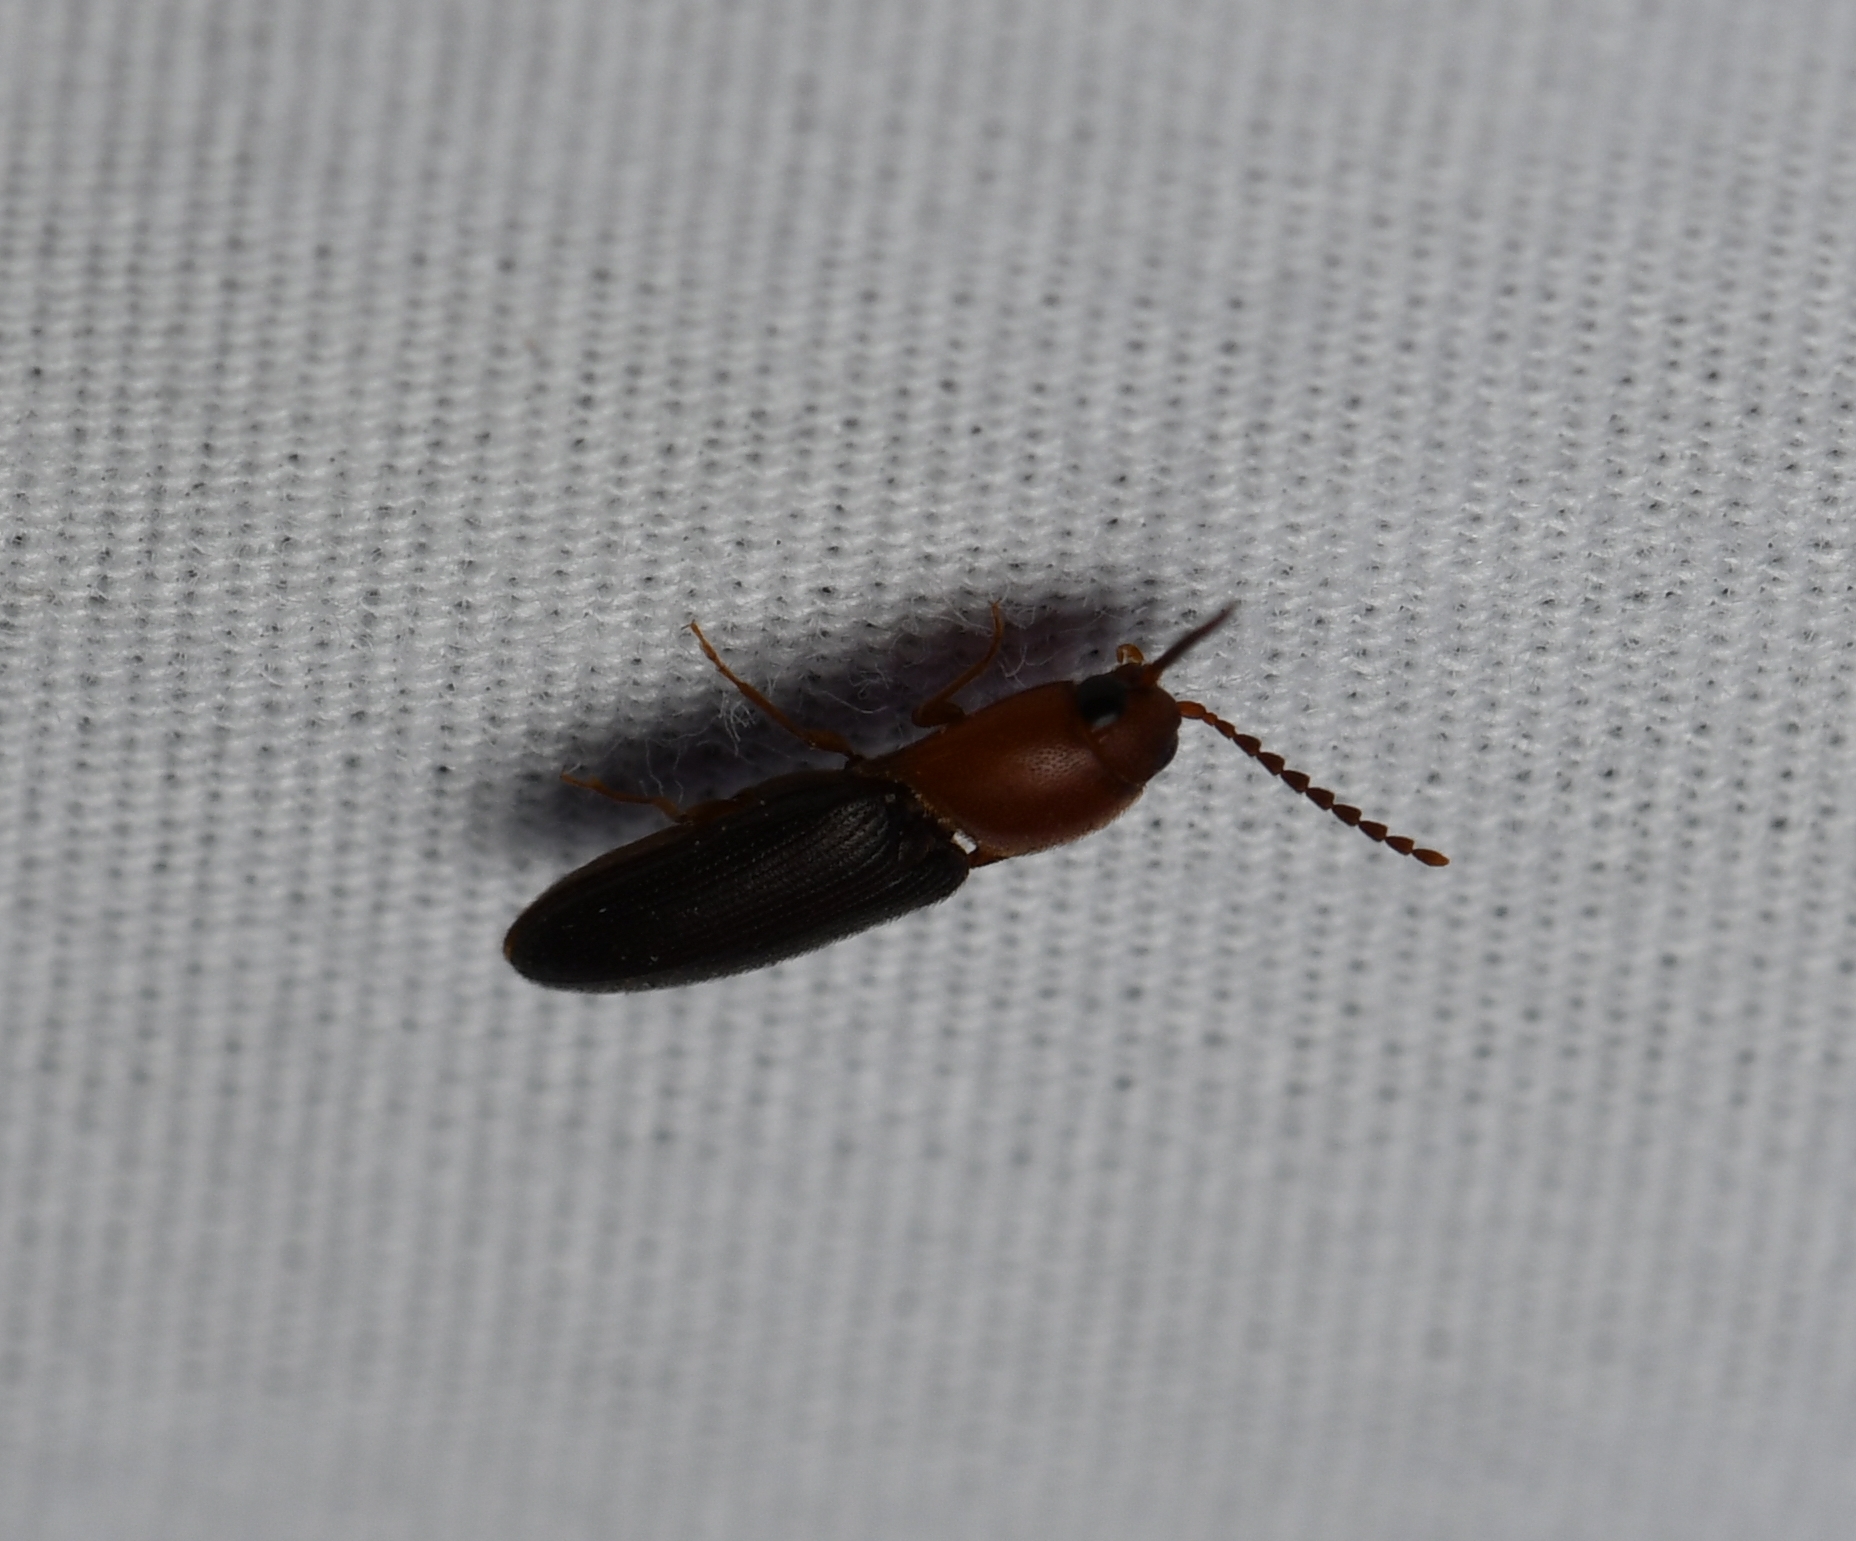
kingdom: Animalia
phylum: Arthropoda
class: Insecta
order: Coleoptera
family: Elateridae
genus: Anchastus
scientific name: Anchastus
